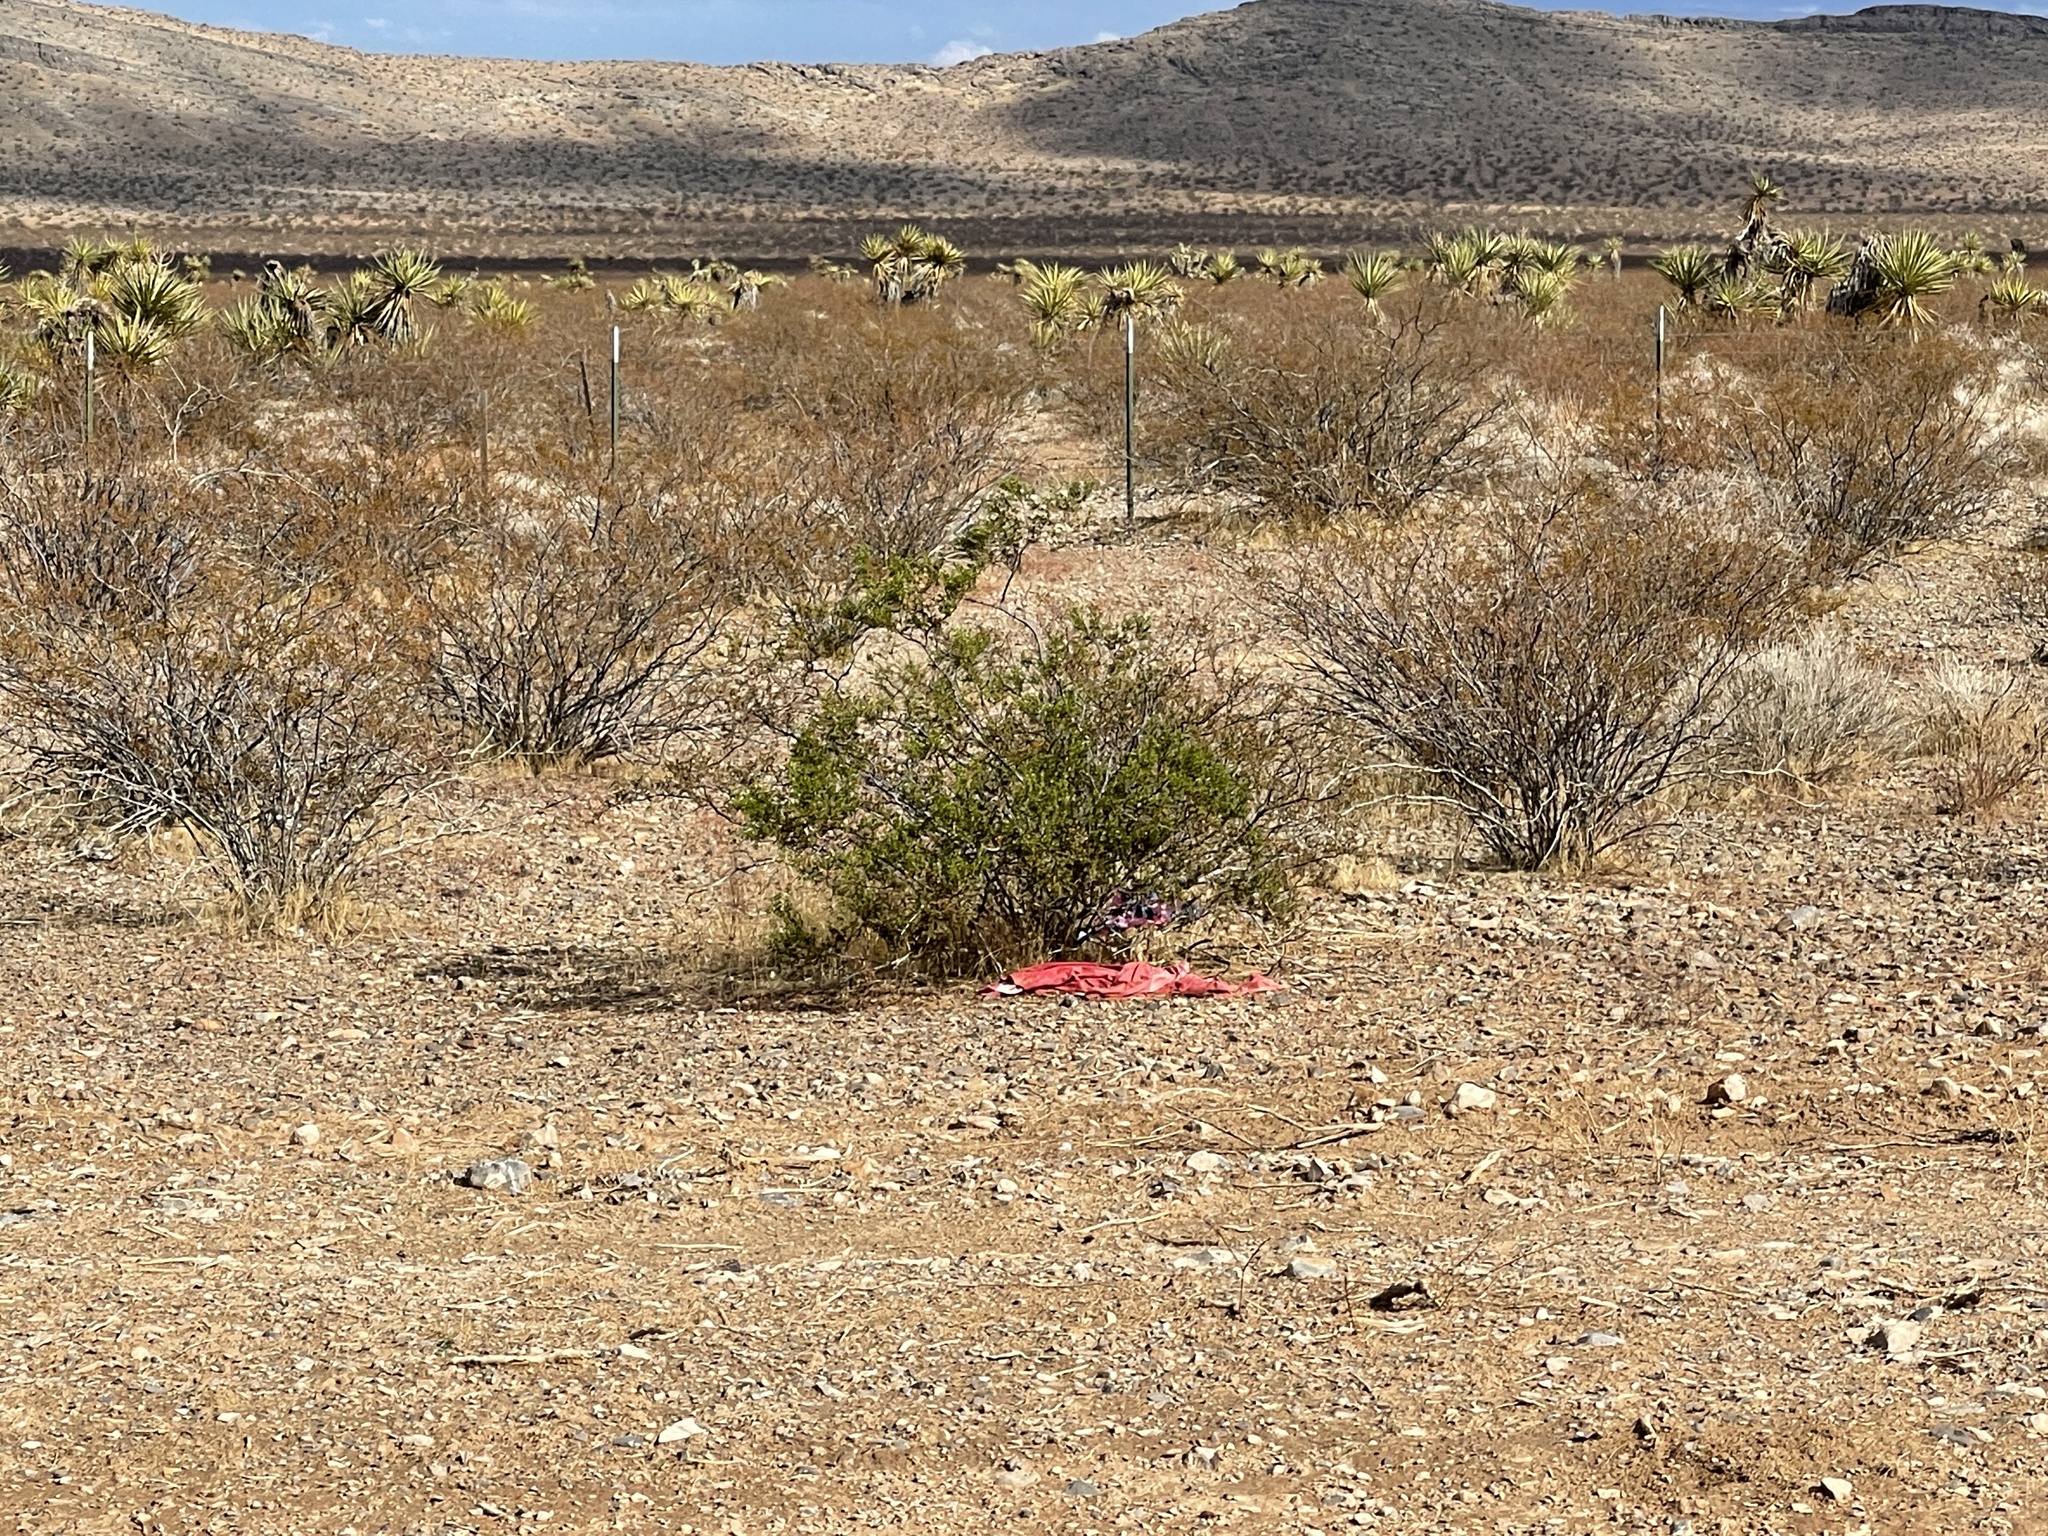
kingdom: Plantae
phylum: Tracheophyta
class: Magnoliopsida
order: Zygophyllales
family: Zygophyllaceae
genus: Larrea
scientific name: Larrea tridentata
